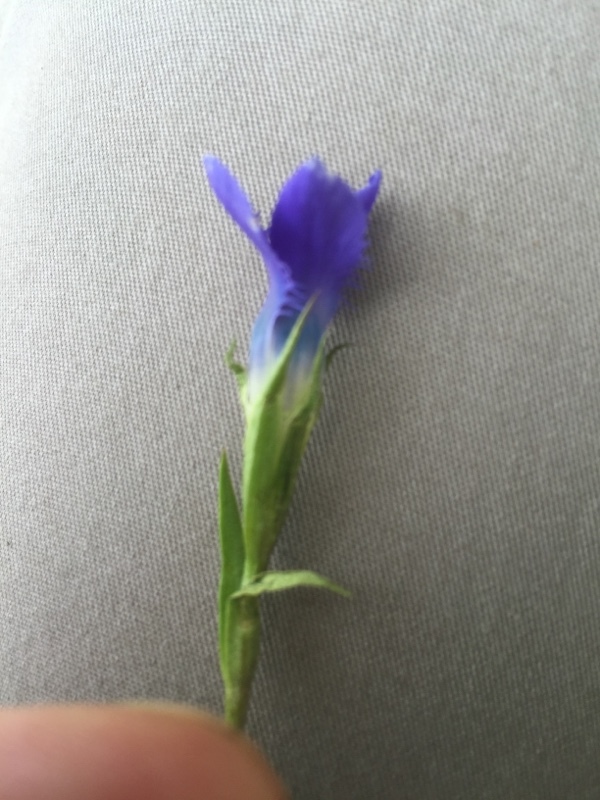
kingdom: Plantae
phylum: Tracheophyta
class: Magnoliopsida
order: Gentianales
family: Gentianaceae
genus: Gentianopsis
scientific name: Gentianopsis ciliata
